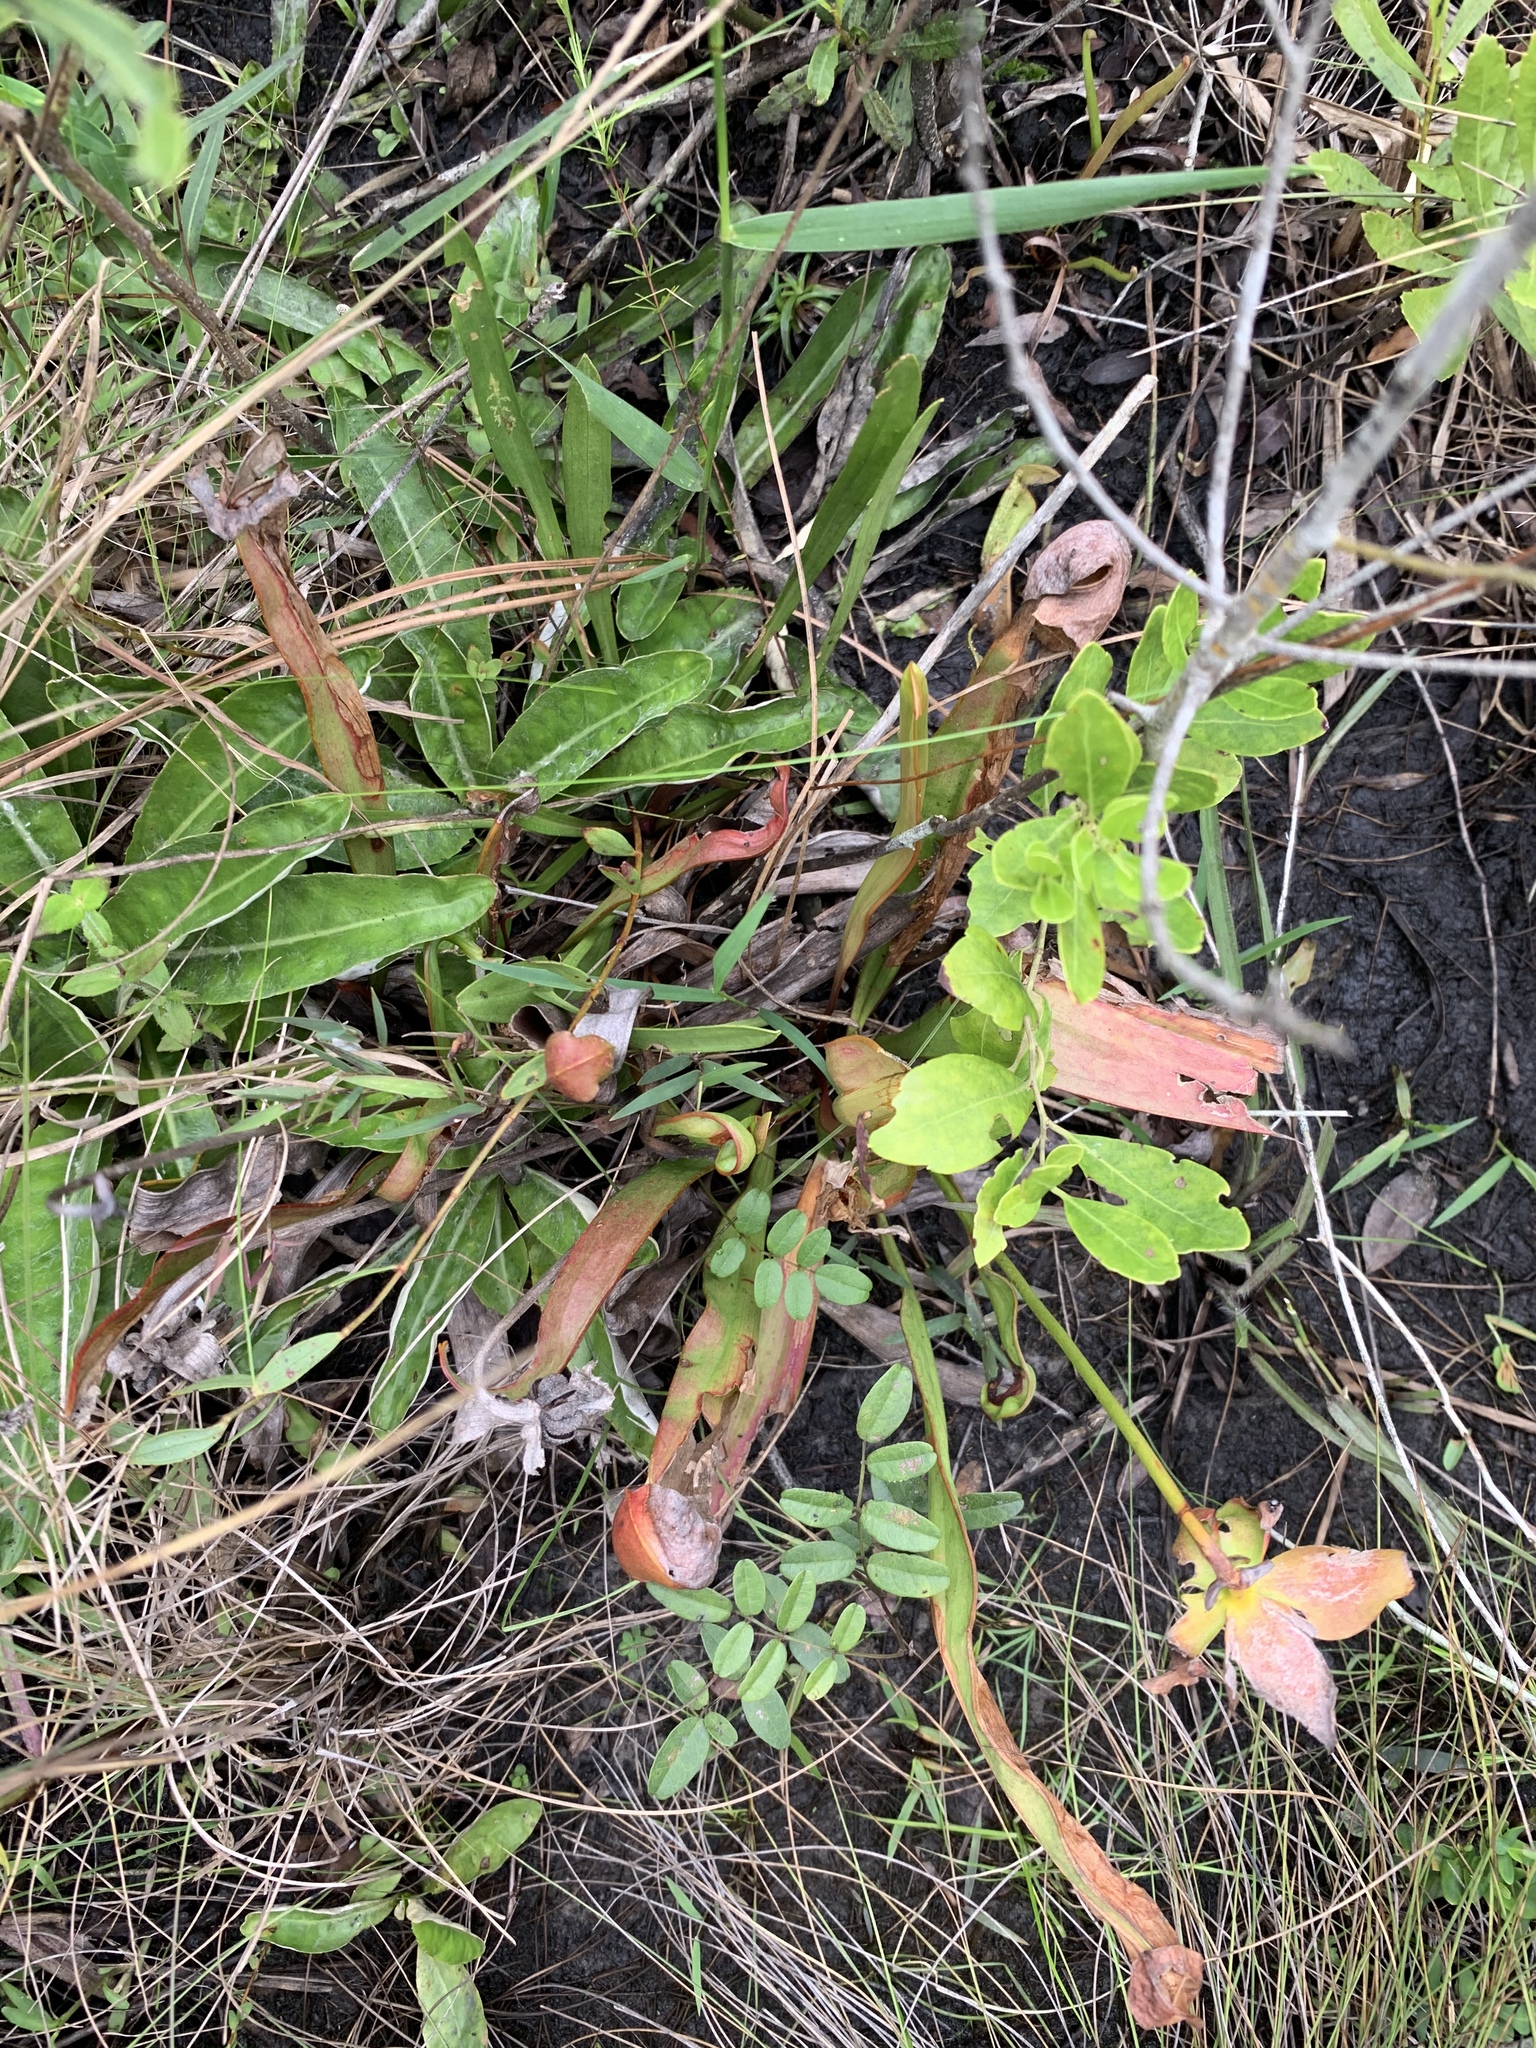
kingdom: Plantae
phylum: Tracheophyta
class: Magnoliopsida
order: Ericales
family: Sarraceniaceae
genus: Sarracenia
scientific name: Sarracenia minor
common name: Rainhat-trumpet
